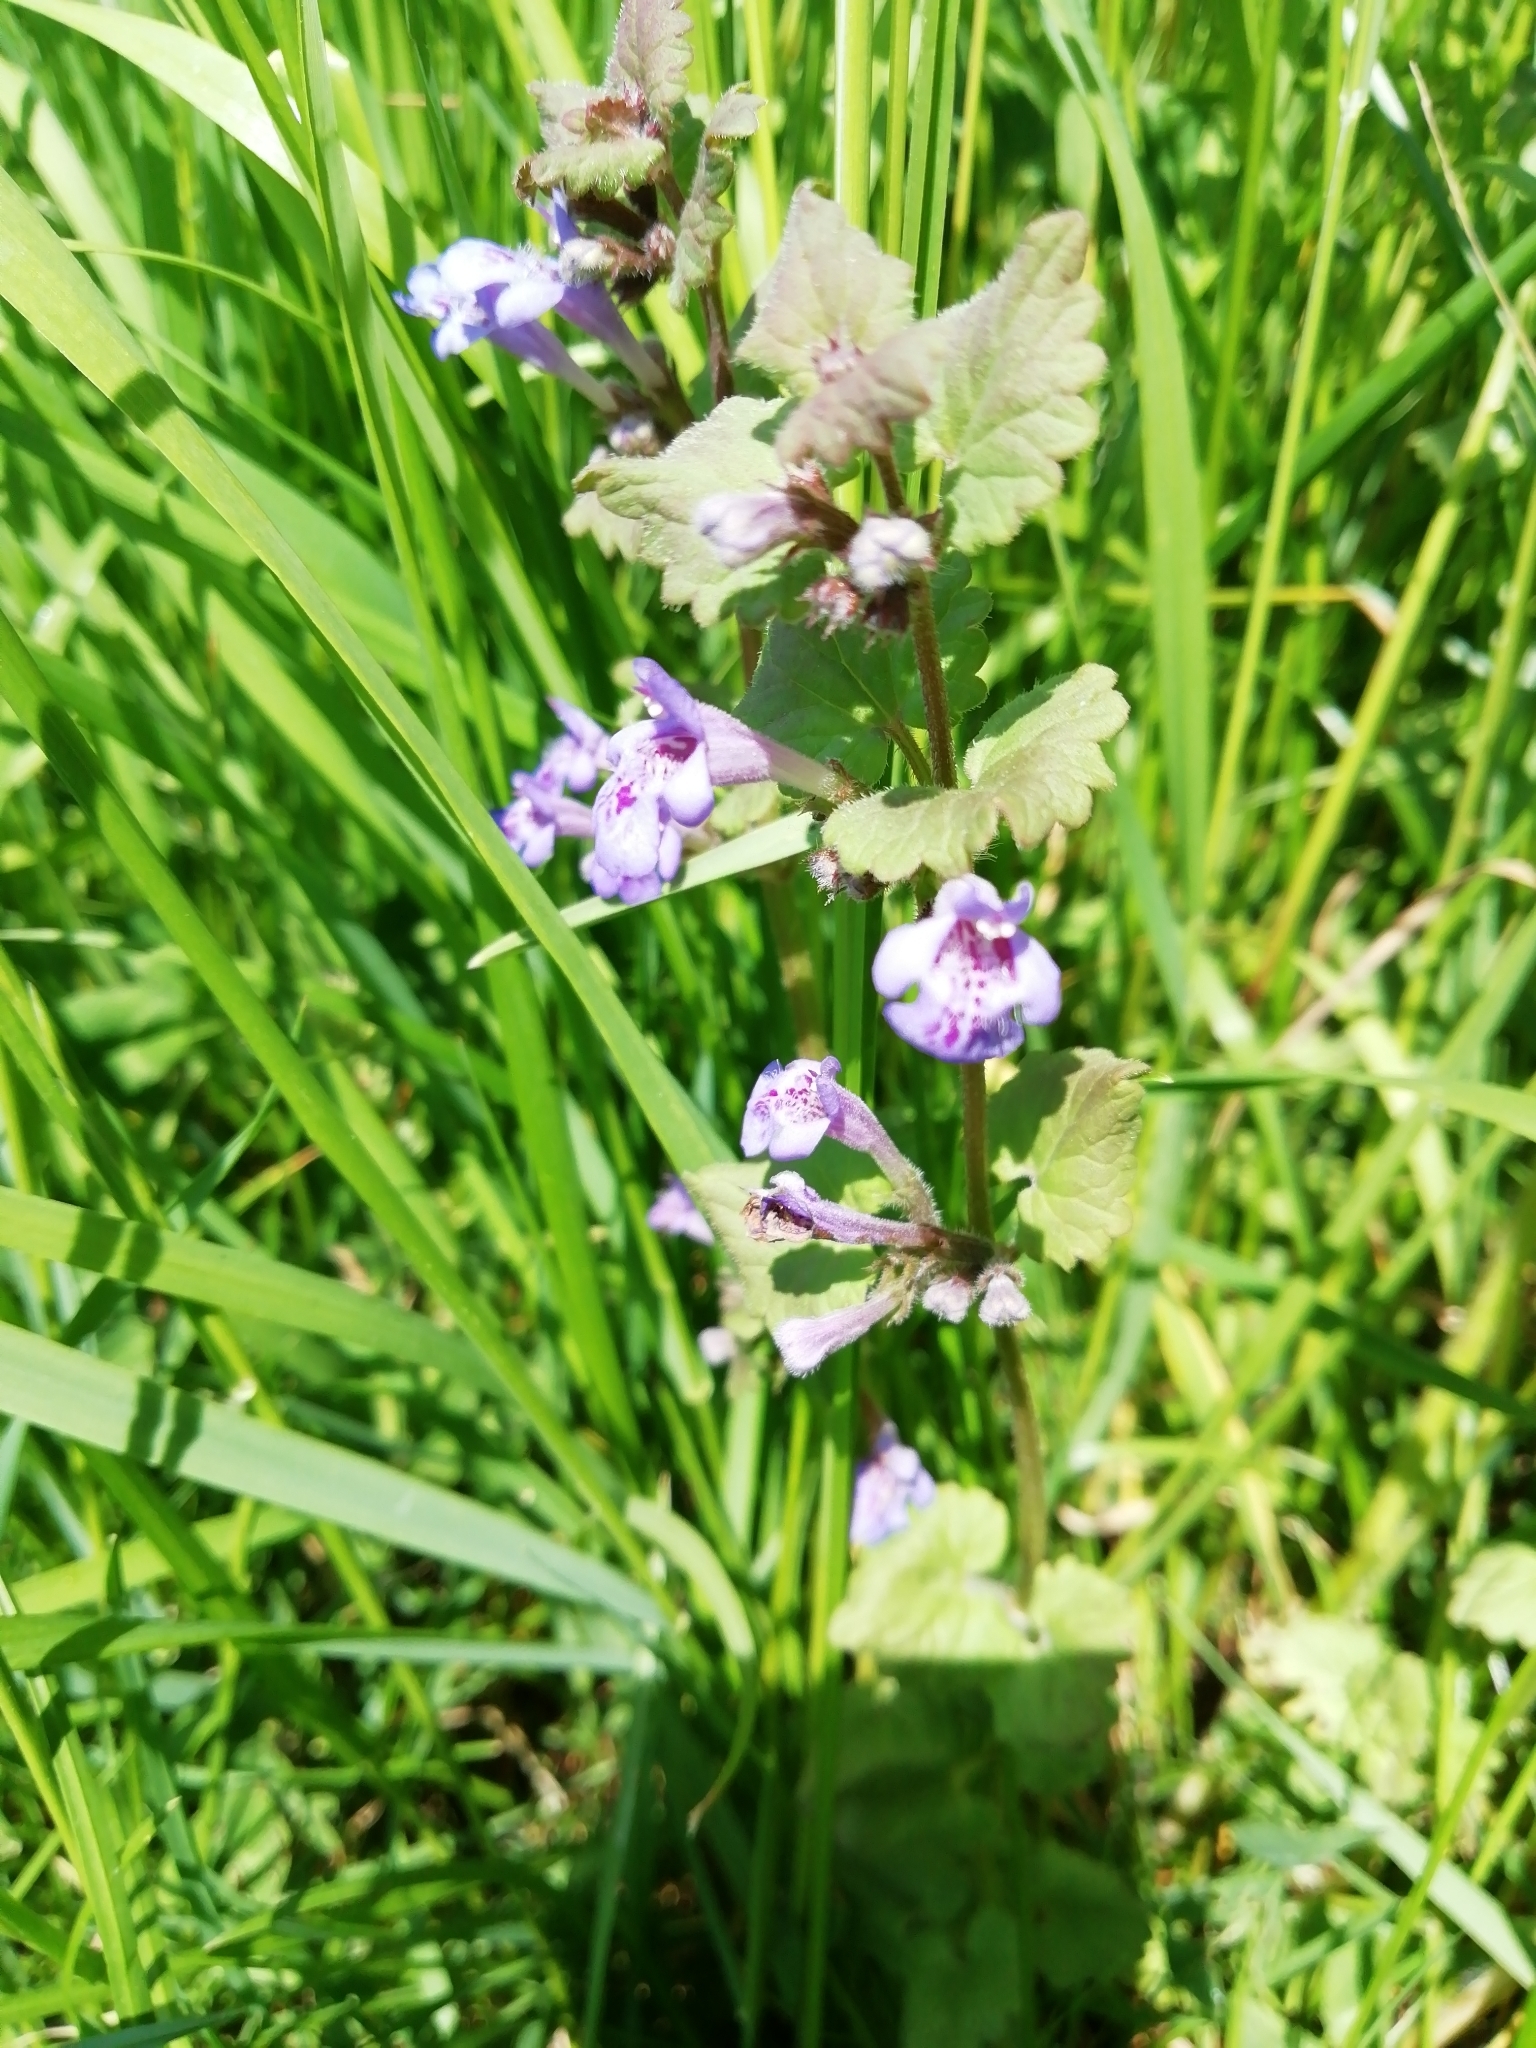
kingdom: Plantae
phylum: Tracheophyta
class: Magnoliopsida
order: Lamiales
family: Lamiaceae
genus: Glechoma
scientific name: Glechoma hederacea
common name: Ground ivy
